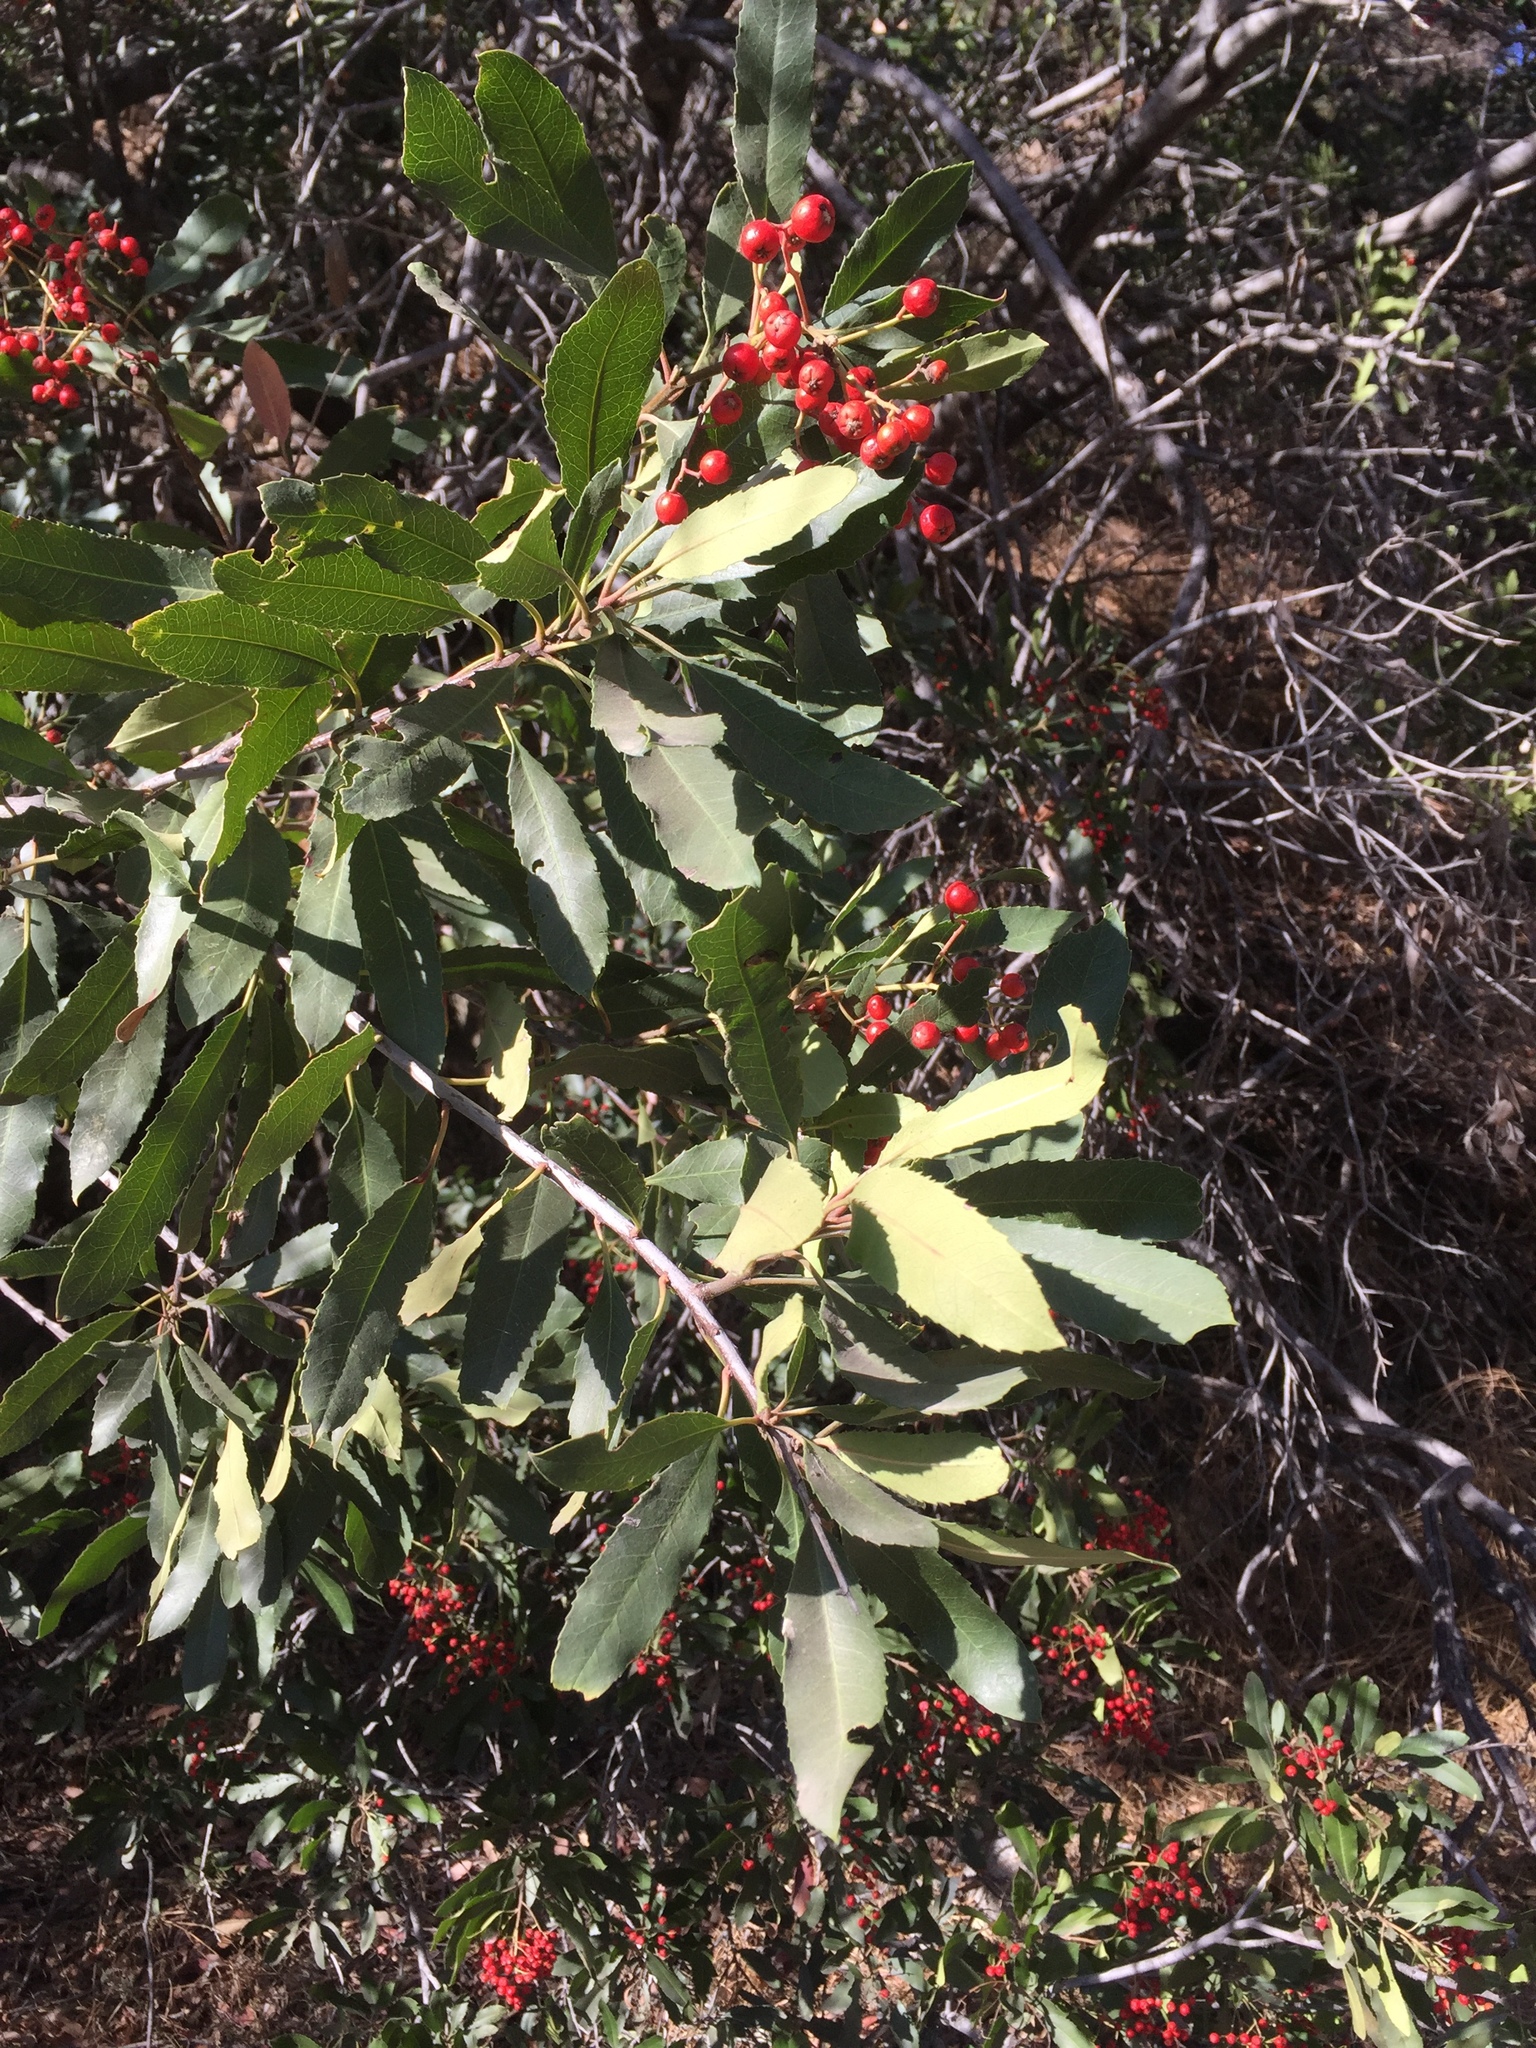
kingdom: Plantae
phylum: Tracheophyta
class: Magnoliopsida
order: Rosales
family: Rosaceae
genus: Heteromeles
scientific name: Heteromeles arbutifolia
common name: California-holly
